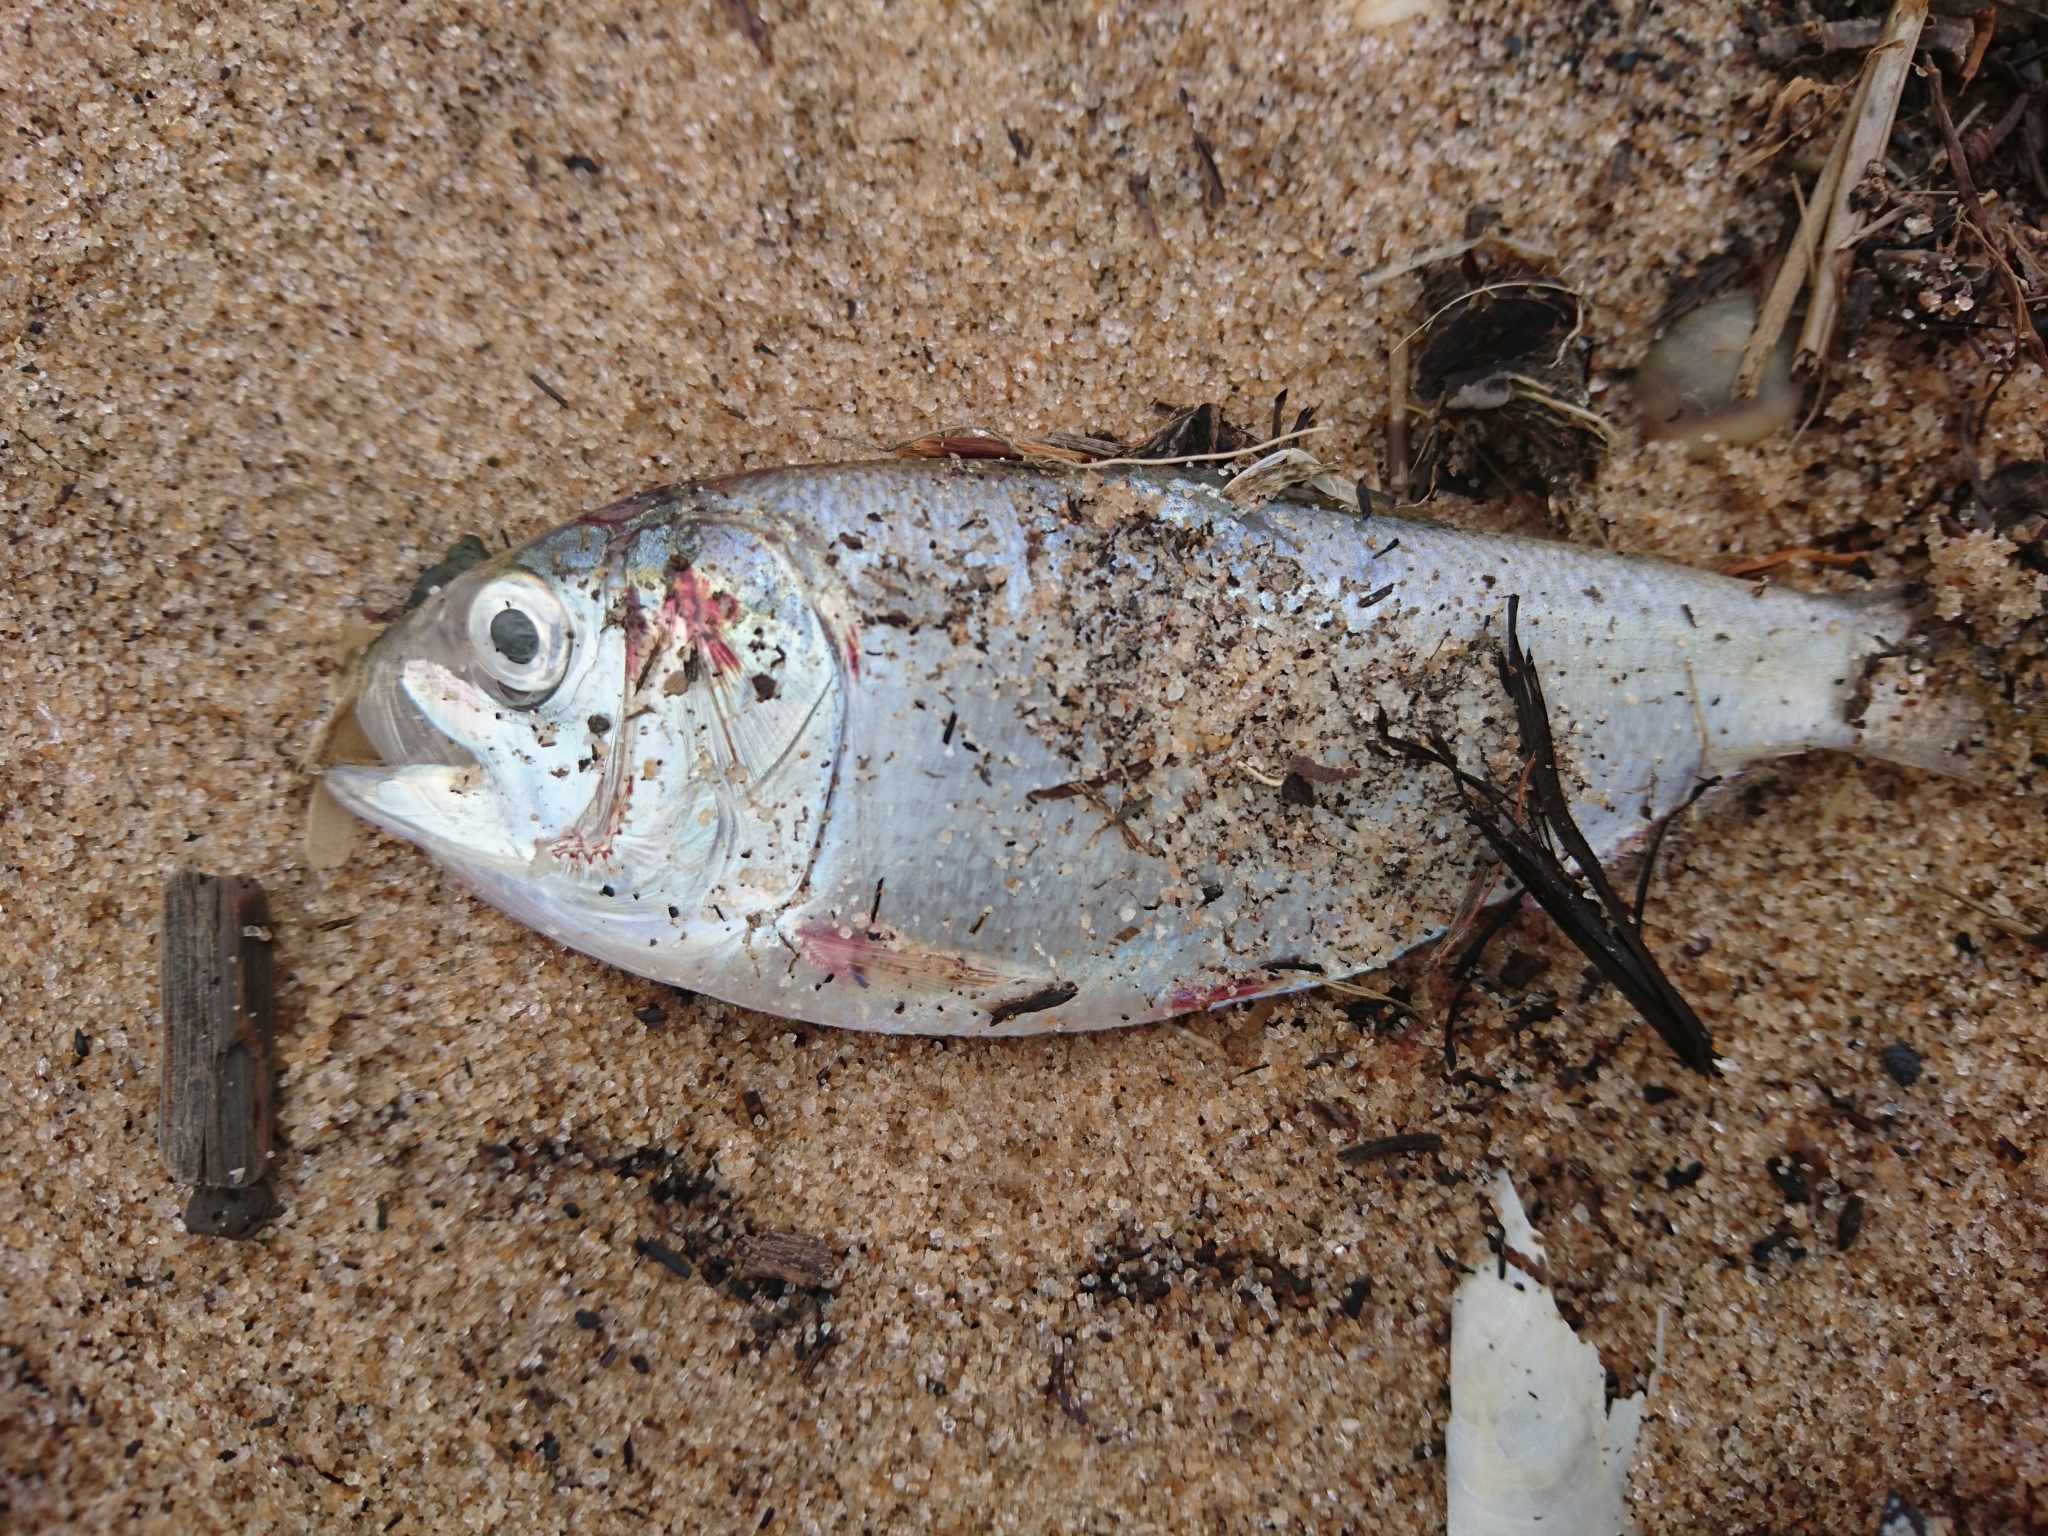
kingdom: Animalia
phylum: Chordata
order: Clupeiformes
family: Clupeidae
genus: Brevoortia
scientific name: Brevoortia patronus
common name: Gulf menhaden
